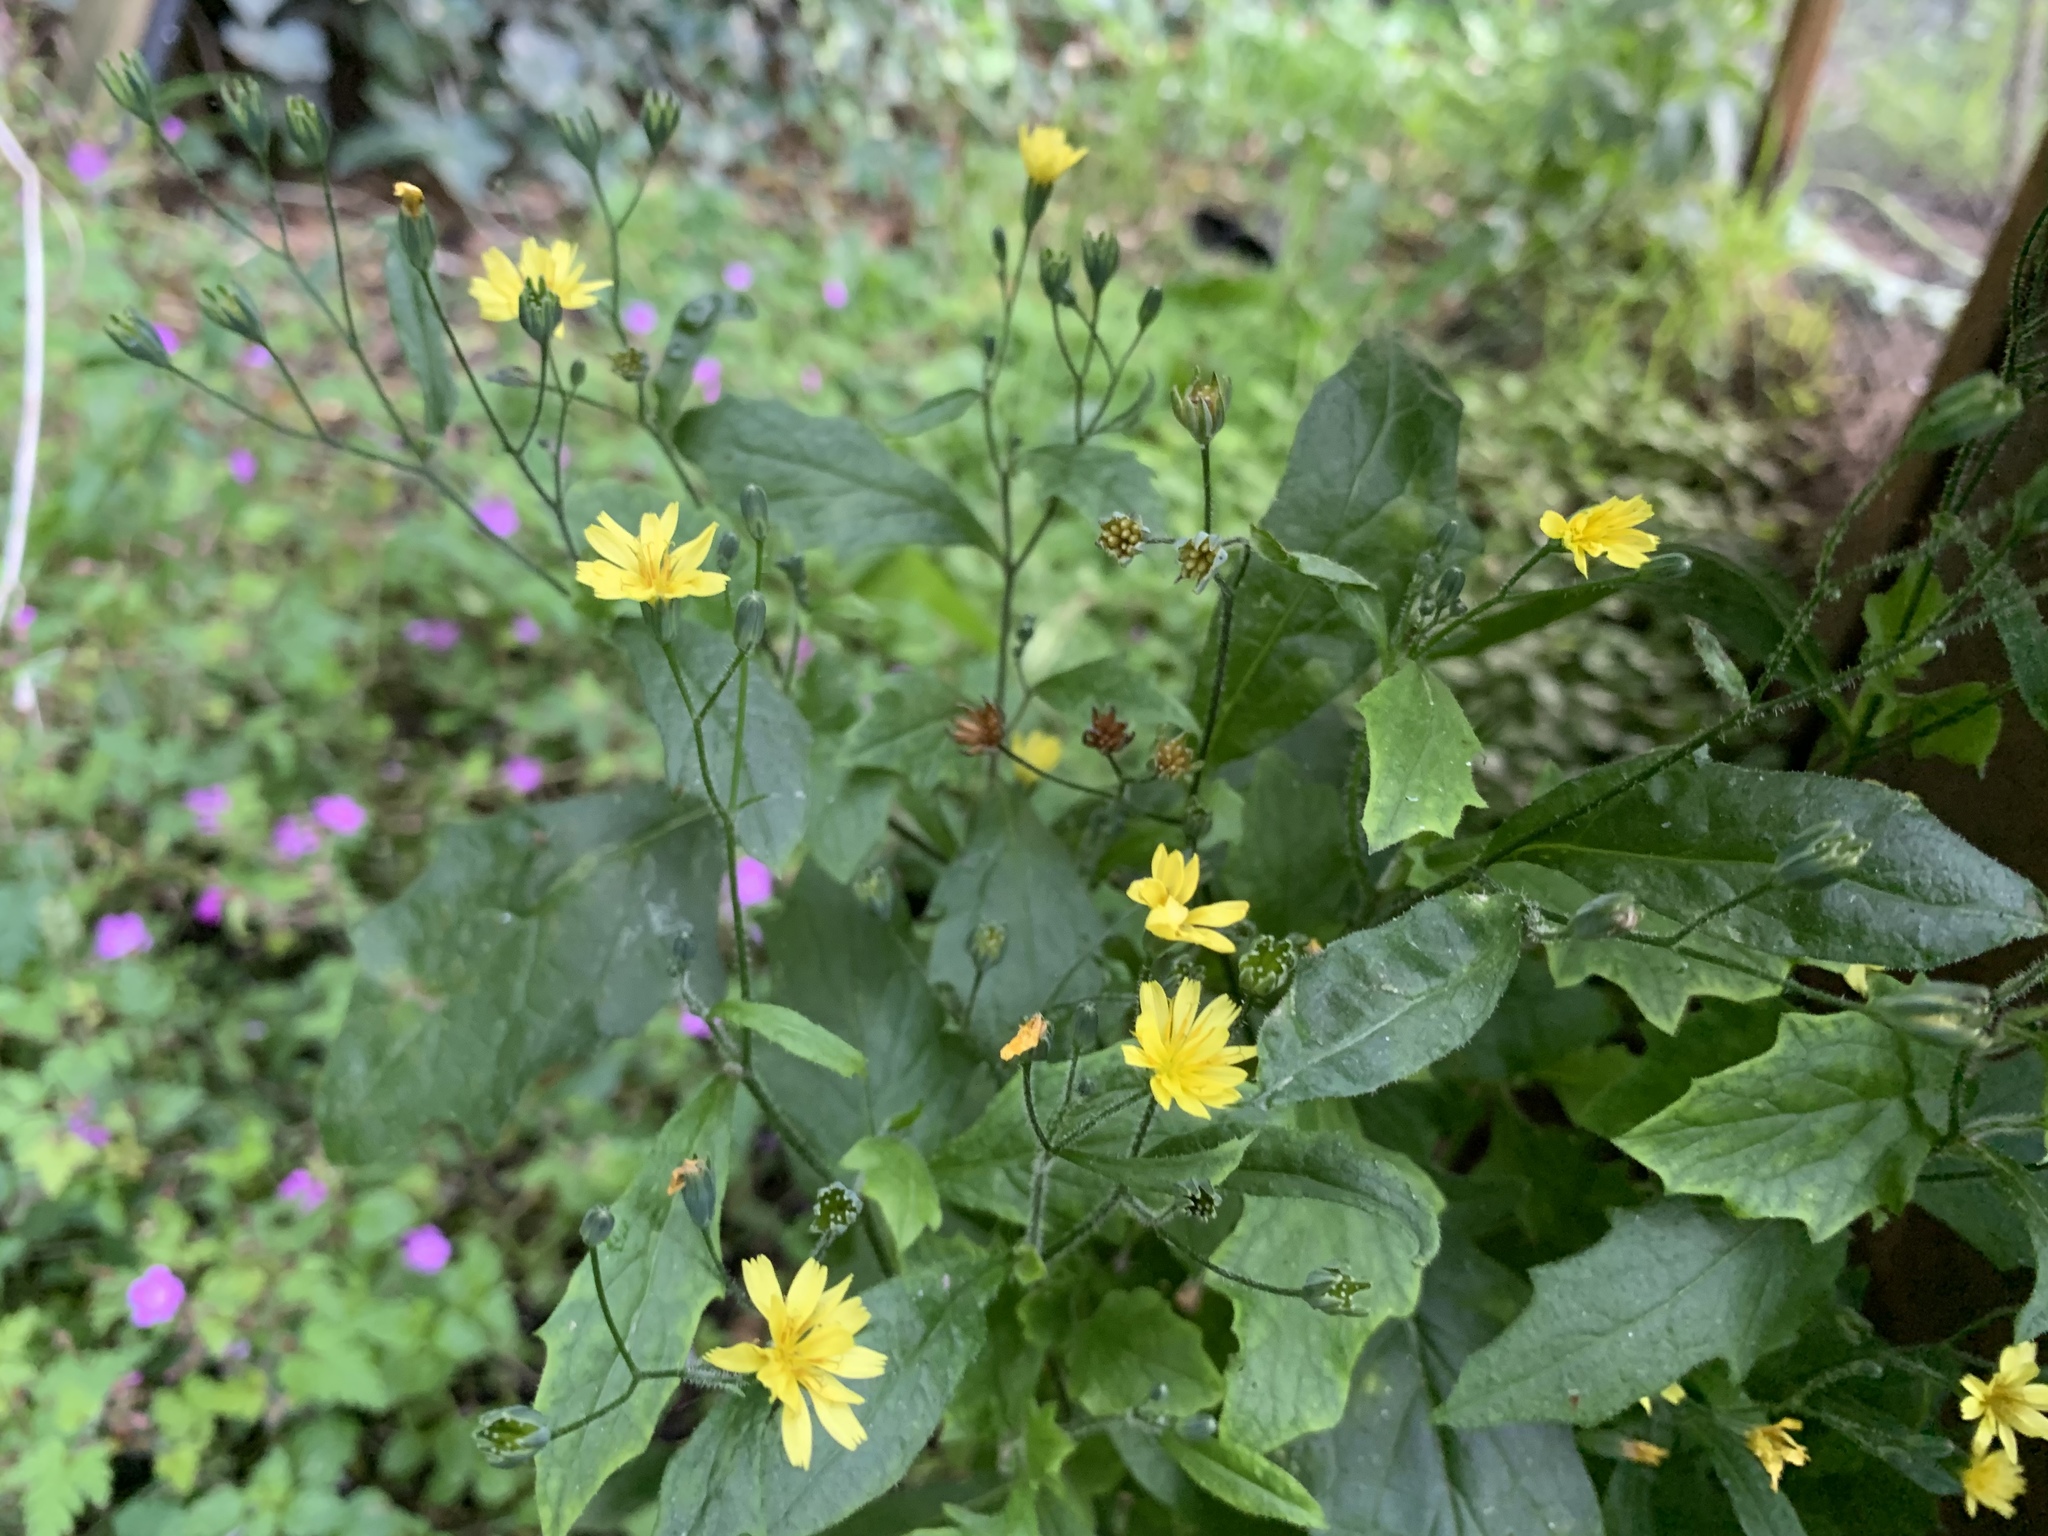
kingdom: Plantae
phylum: Tracheophyta
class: Magnoliopsida
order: Asterales
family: Asteraceae
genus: Lapsana
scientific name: Lapsana communis
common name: Nipplewort
